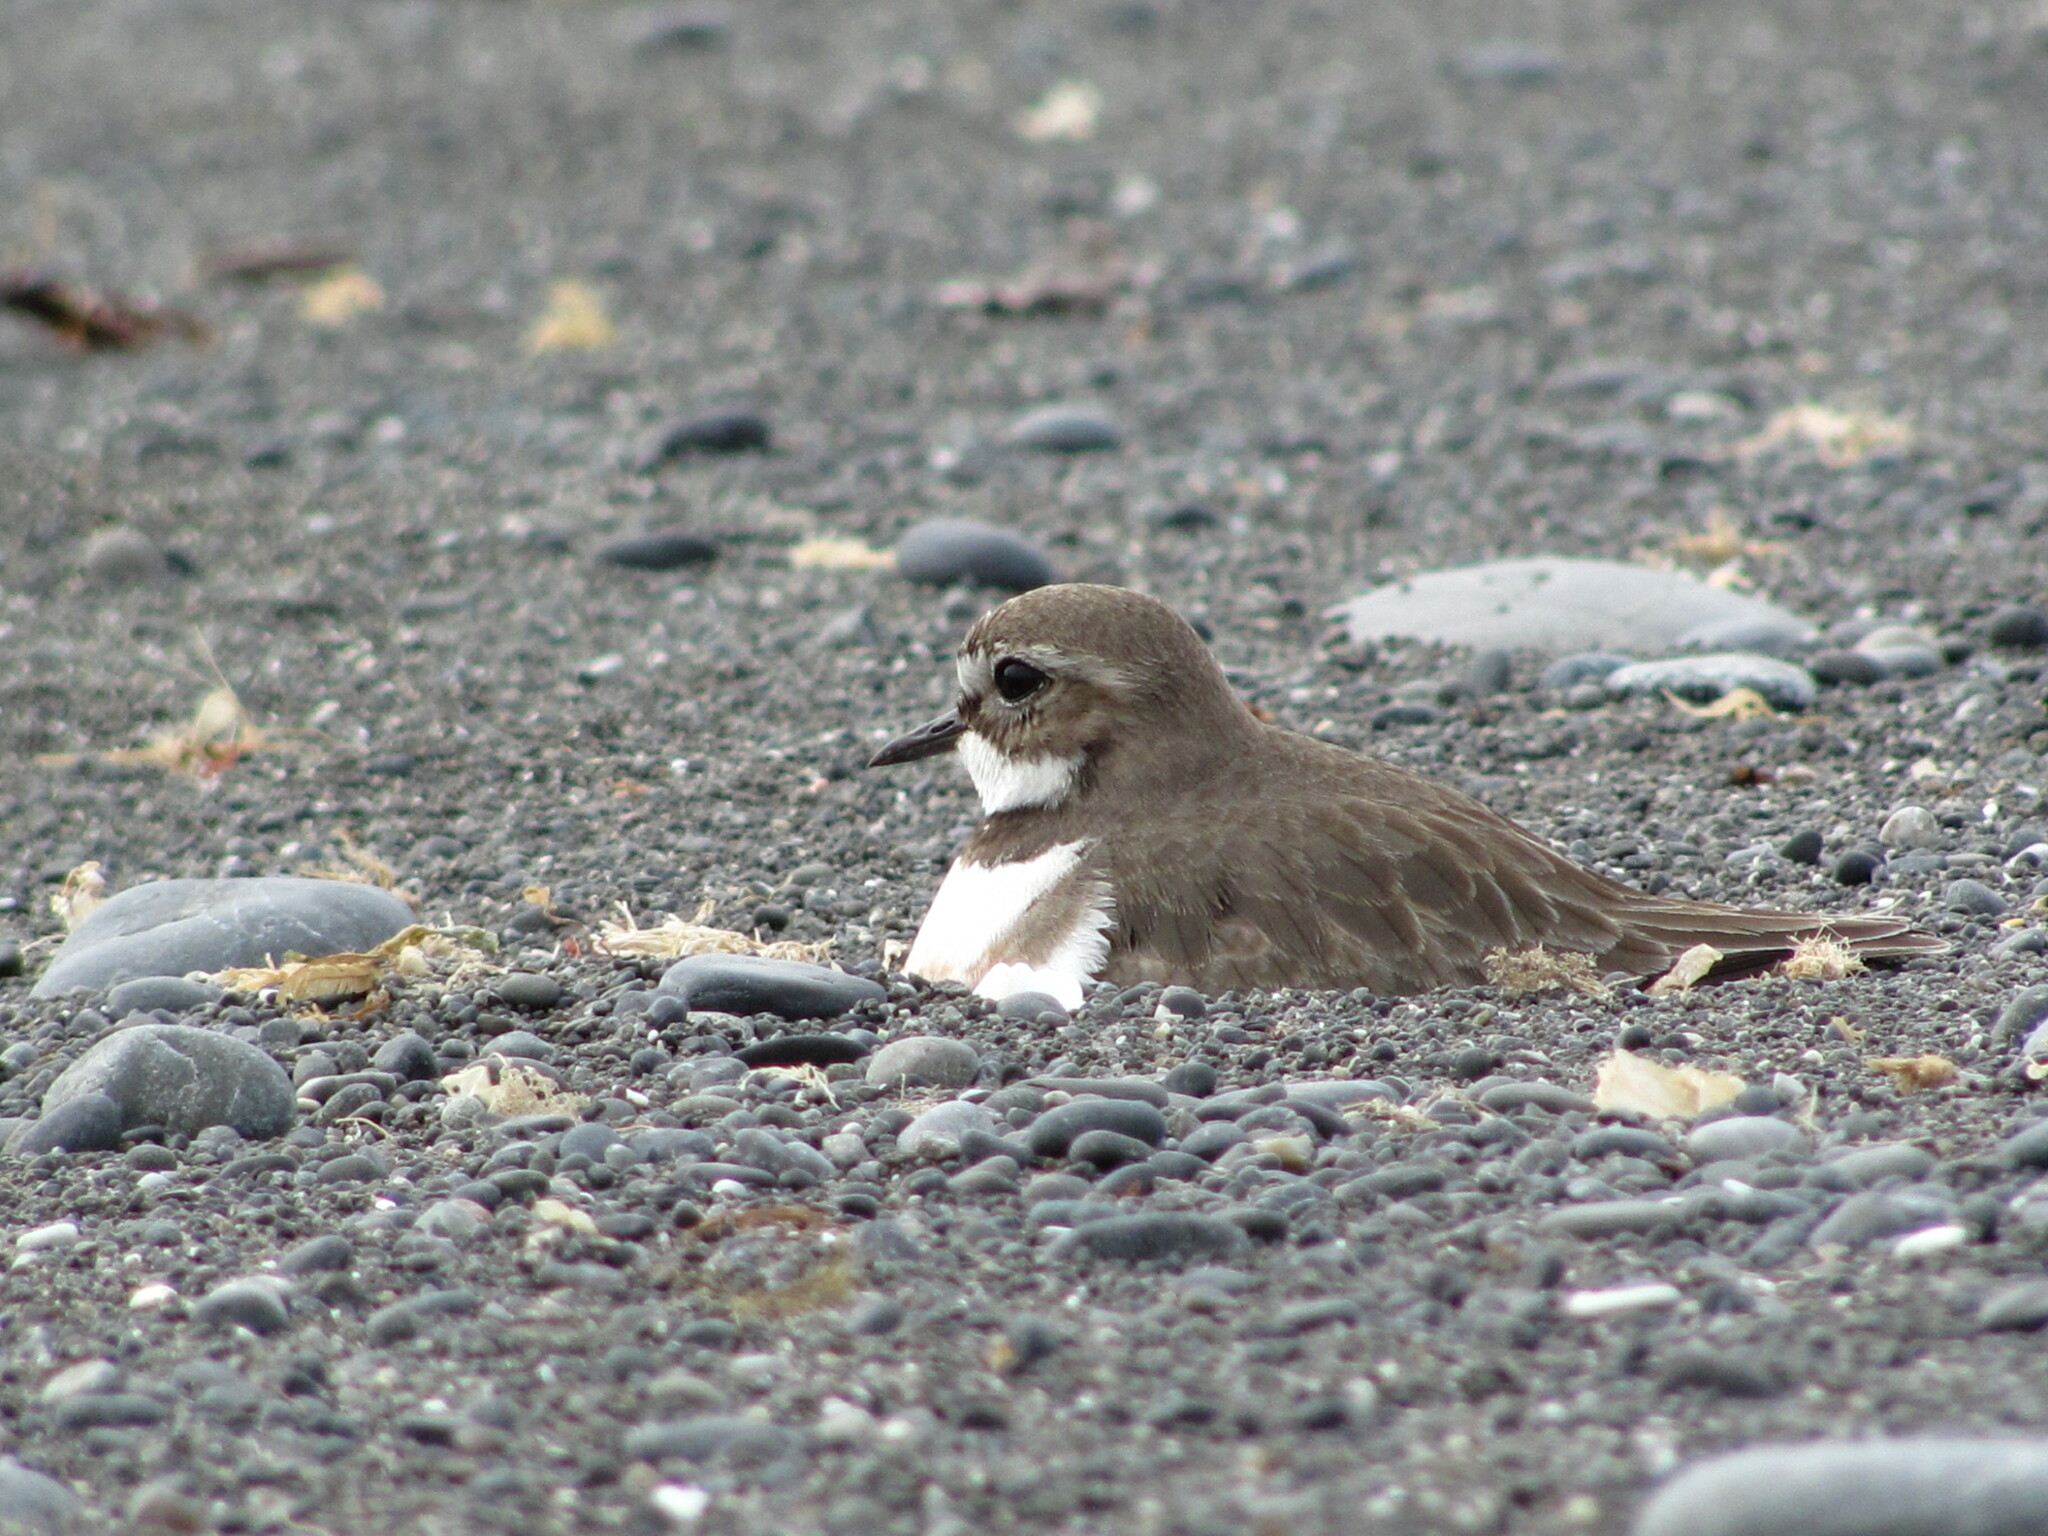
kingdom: Animalia
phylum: Chordata
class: Aves
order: Charadriiformes
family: Charadriidae
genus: Anarhynchus
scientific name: Anarhynchus
